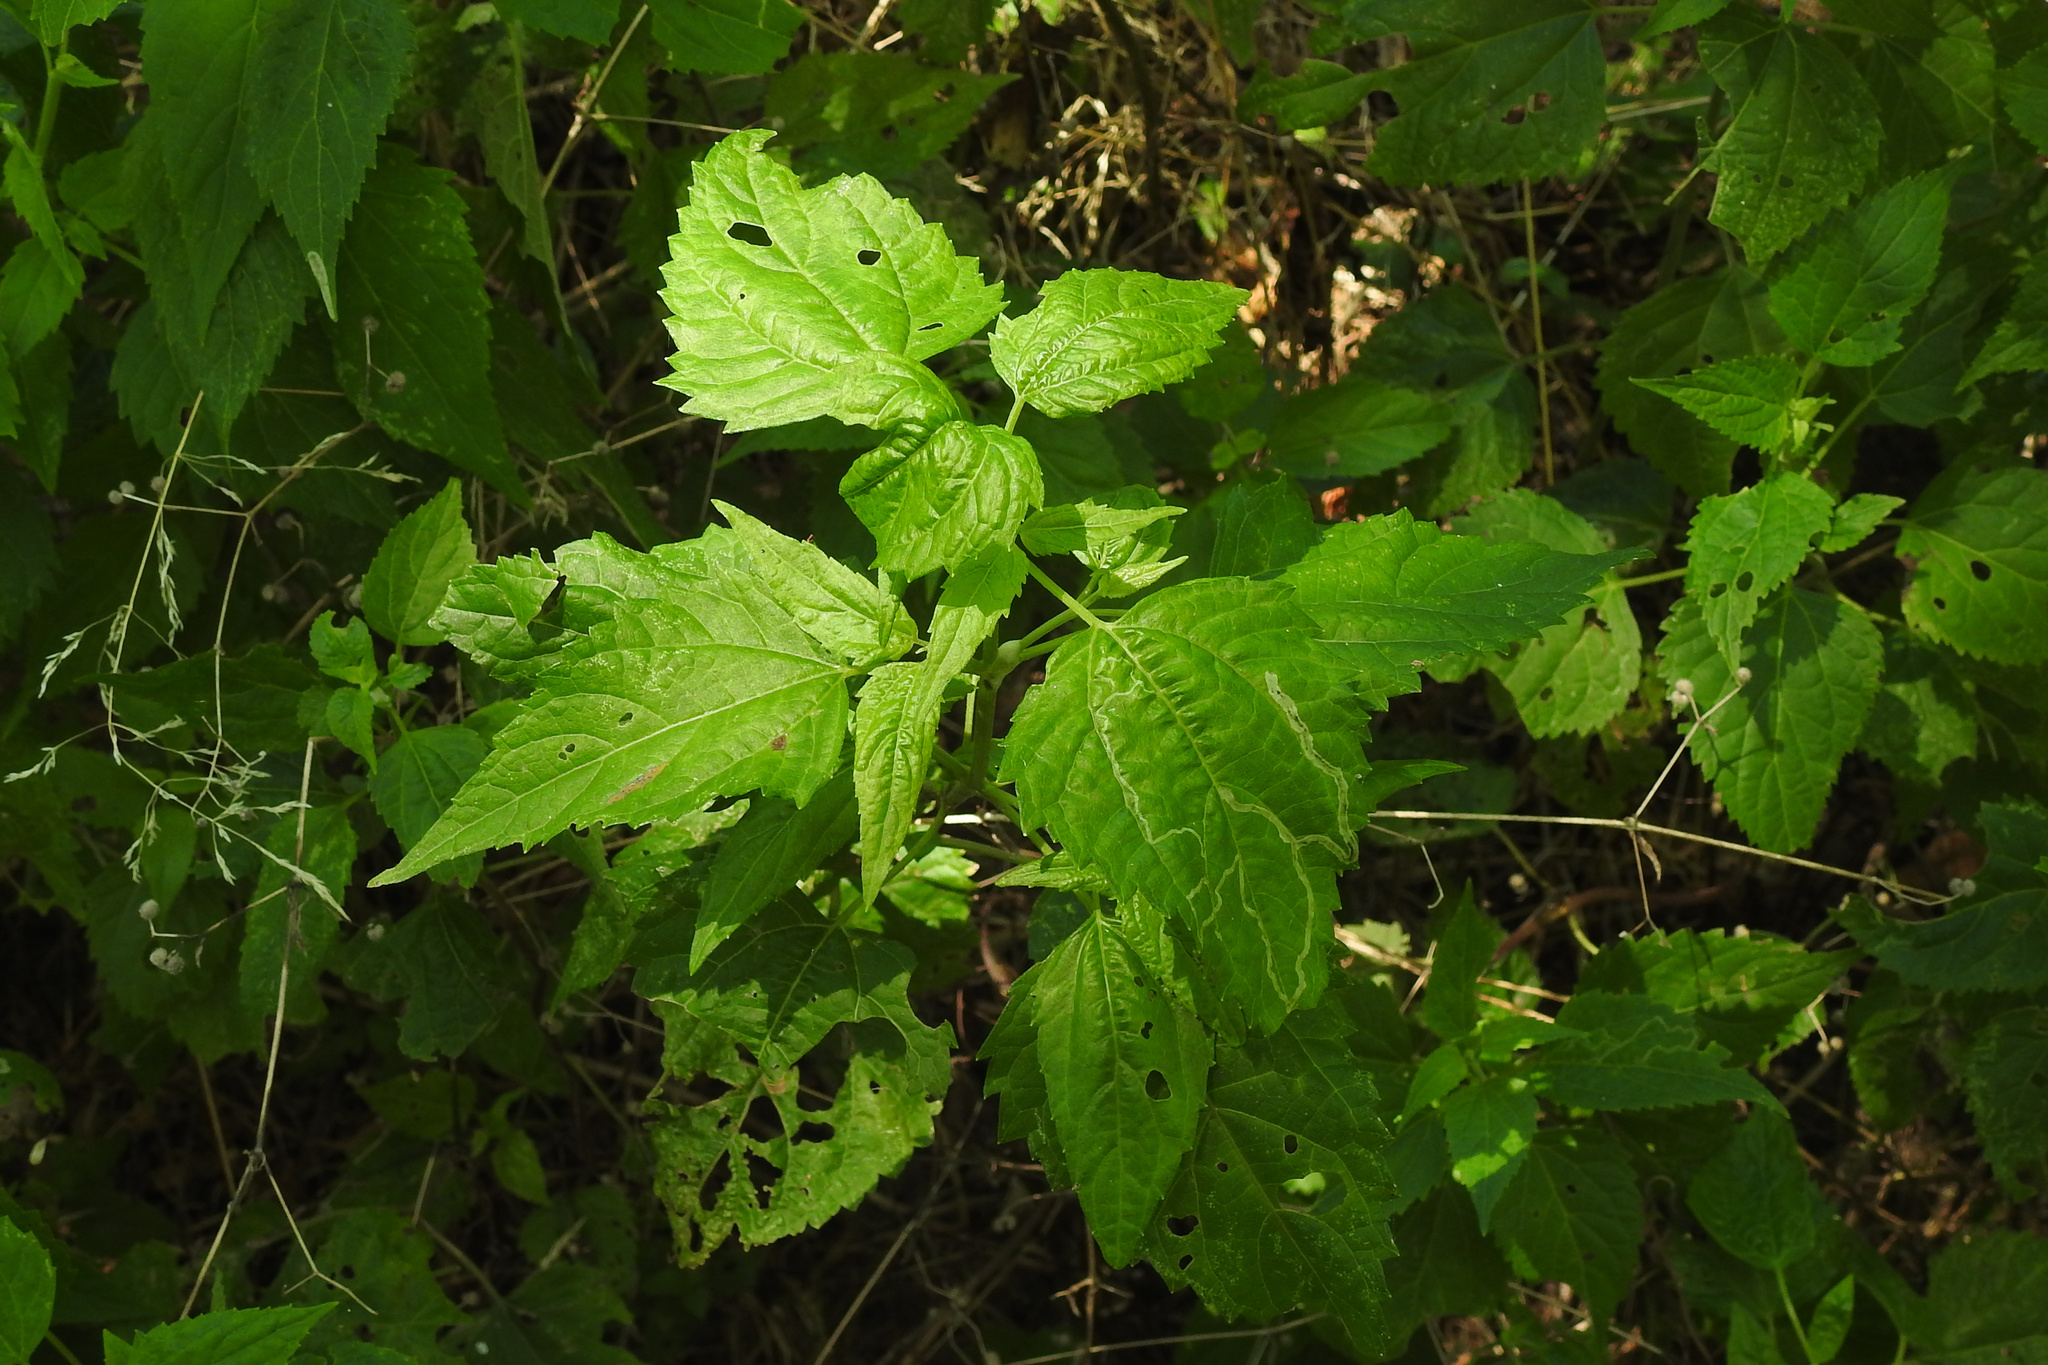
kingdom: Plantae
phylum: Tracheophyta
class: Magnoliopsida
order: Asterales
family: Asteraceae
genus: Ageratina
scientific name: Ageratina altissima
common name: White snakeroot
